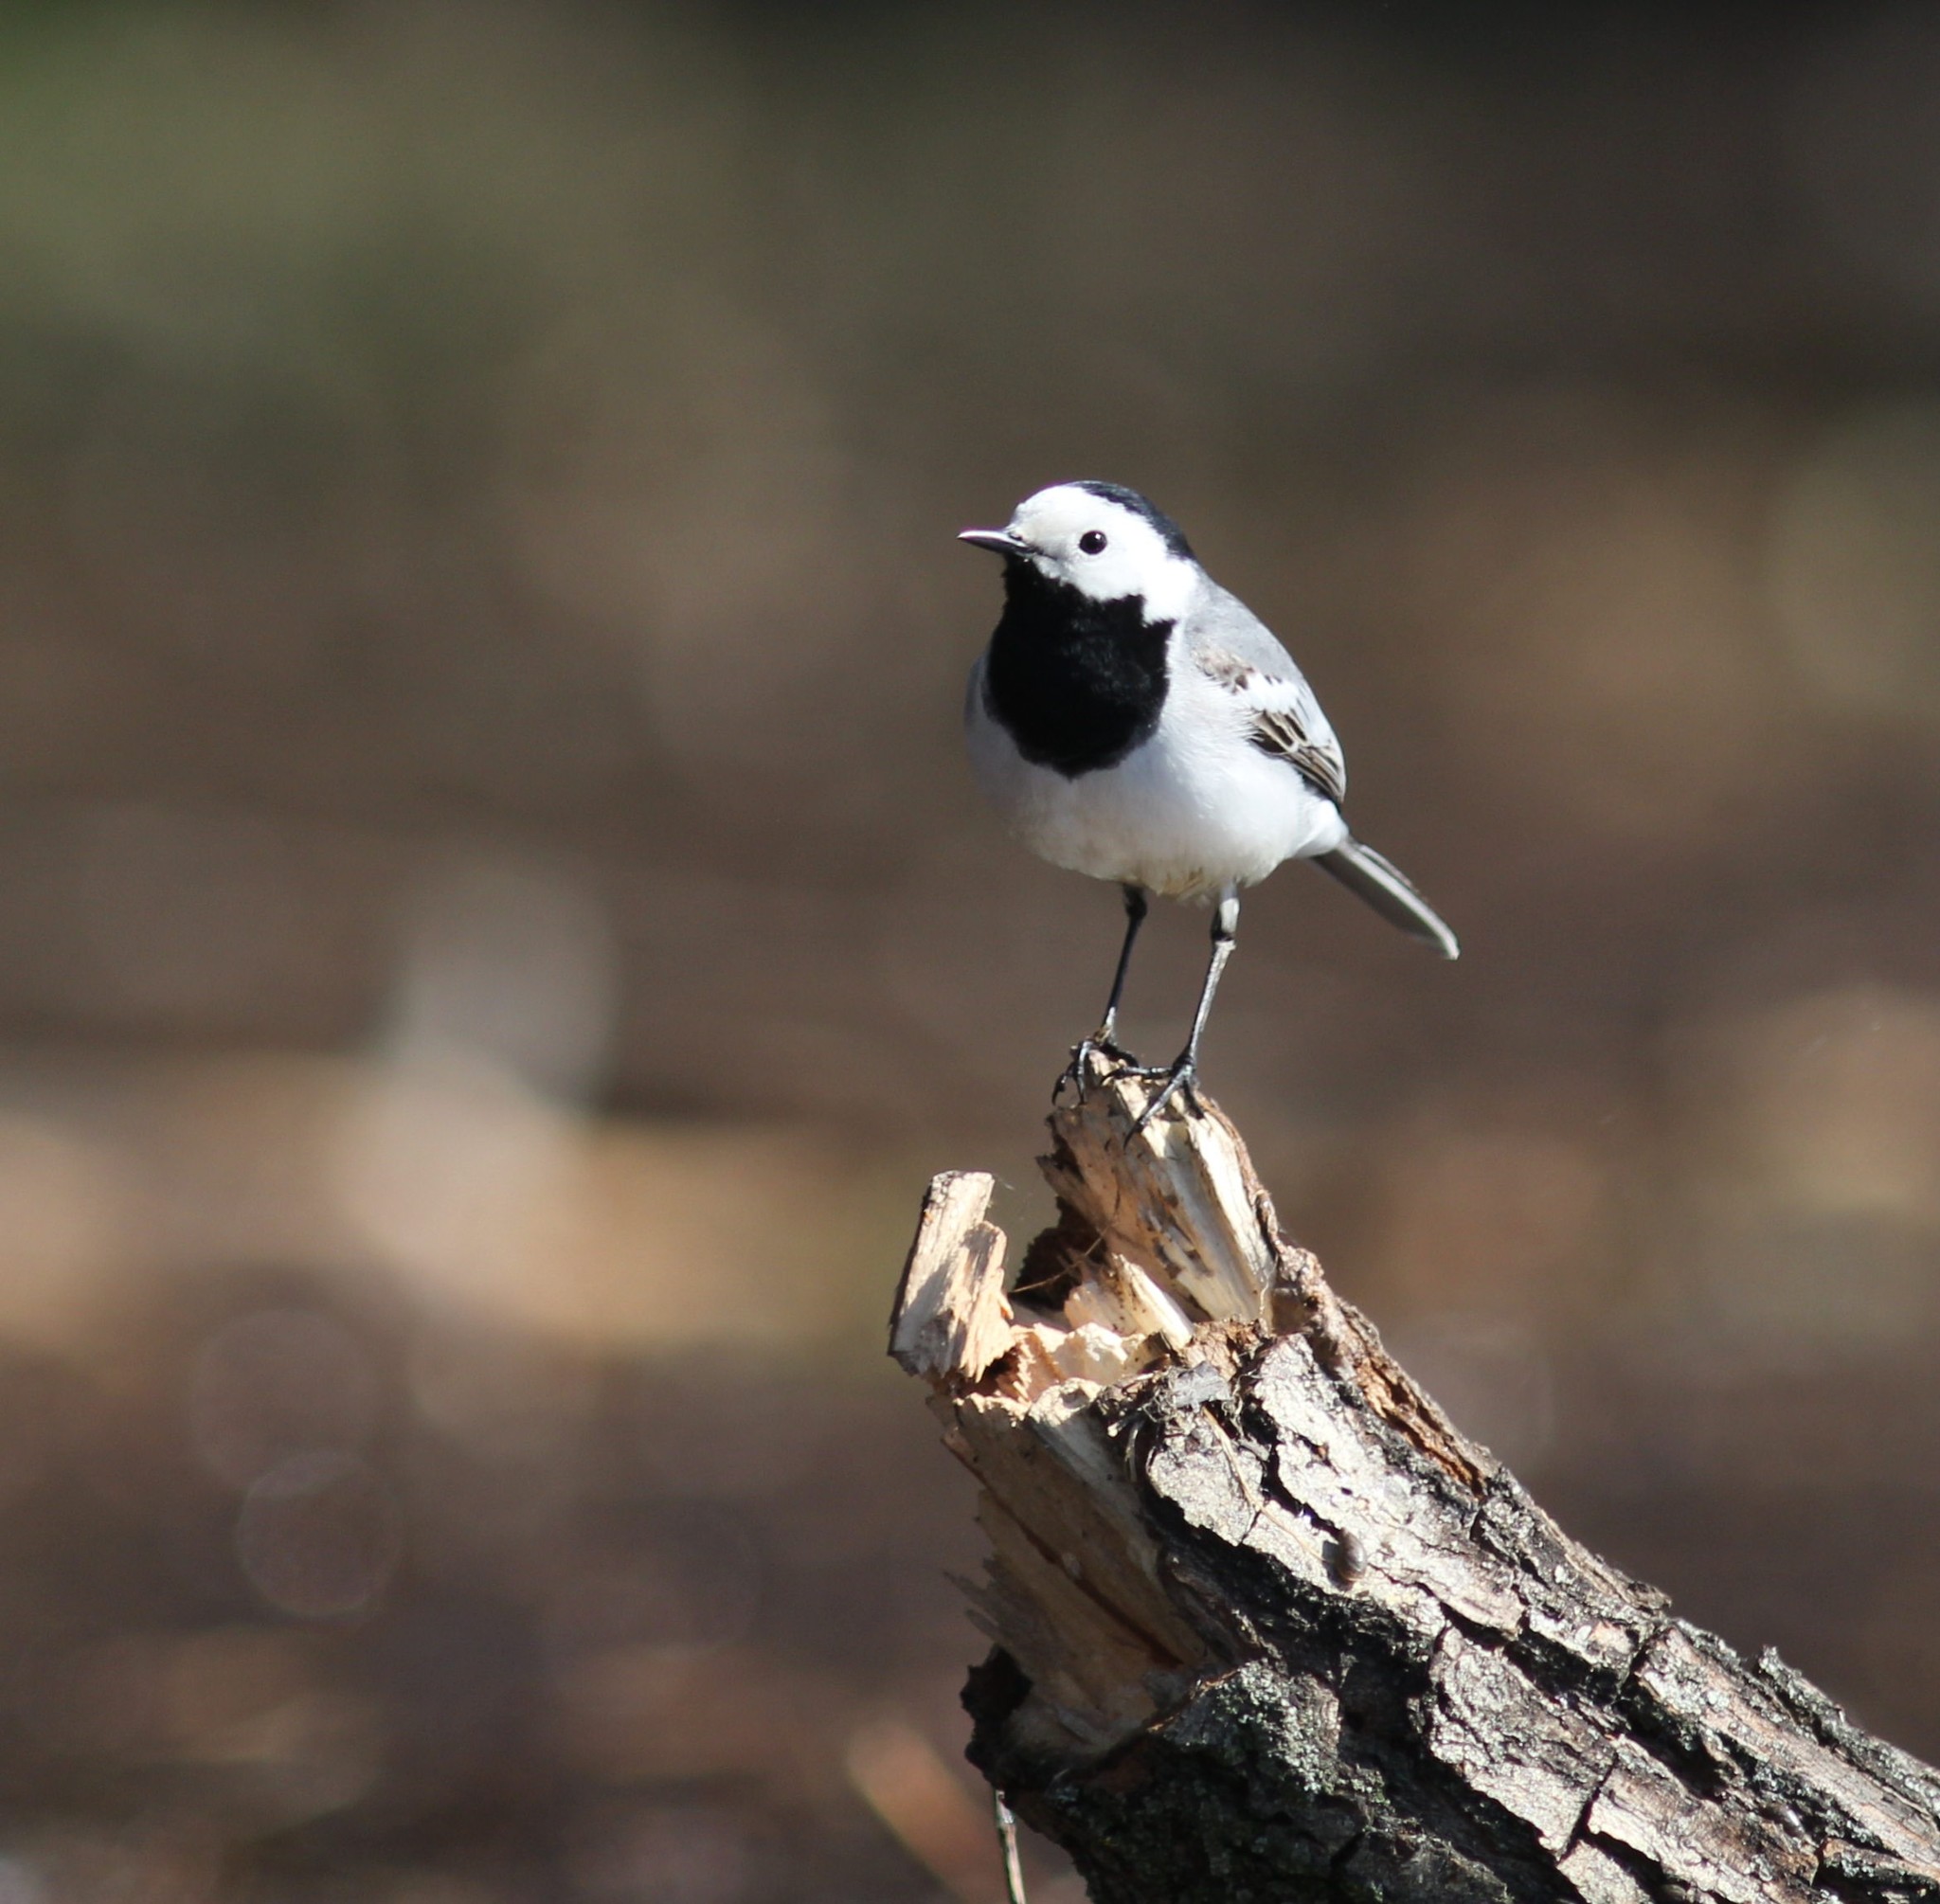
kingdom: Animalia
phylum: Chordata
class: Aves
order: Passeriformes
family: Motacillidae
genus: Motacilla
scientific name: Motacilla alba
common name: White wagtail
